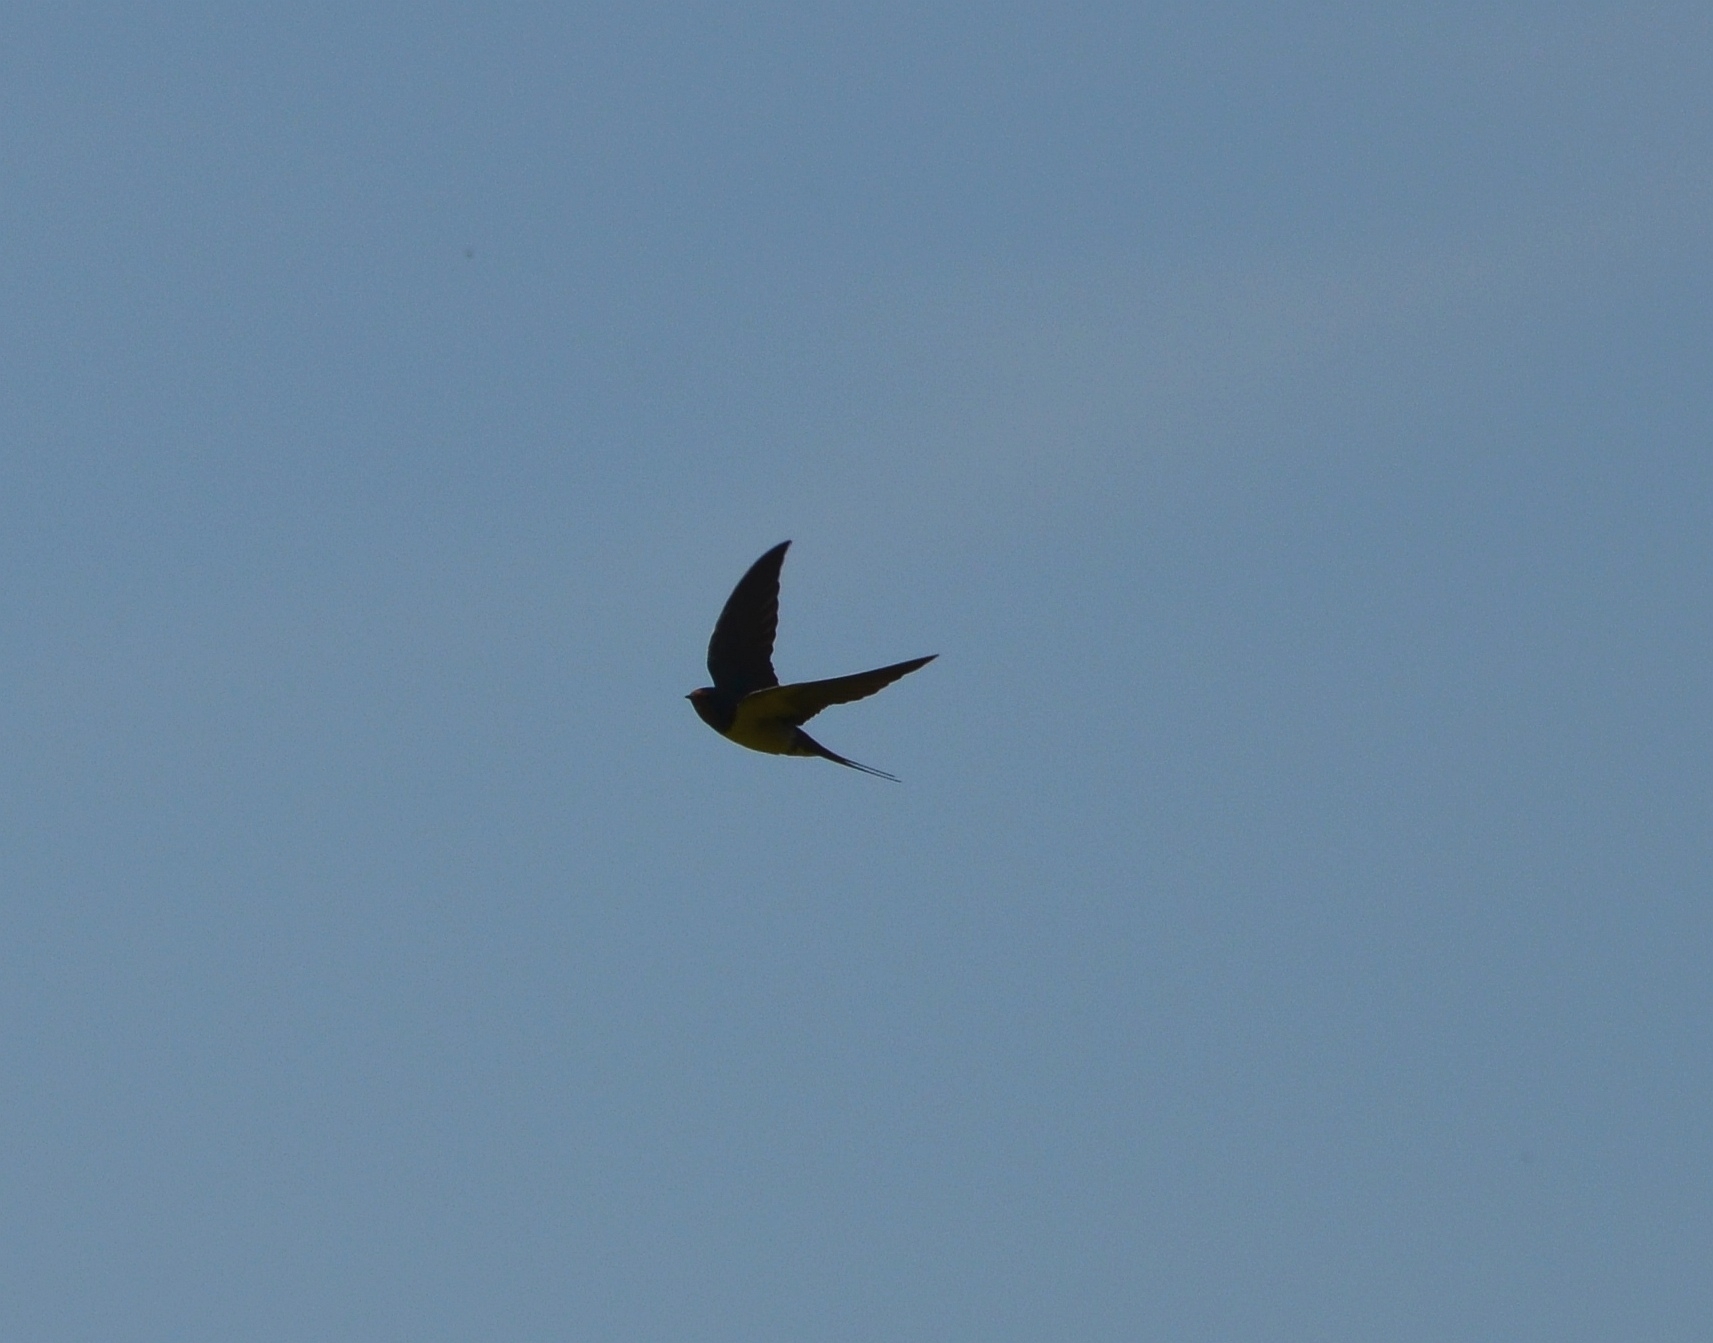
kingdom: Animalia
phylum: Chordata
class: Aves
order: Passeriformes
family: Hirundinidae
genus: Hirundo
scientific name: Hirundo rustica
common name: Barn swallow
